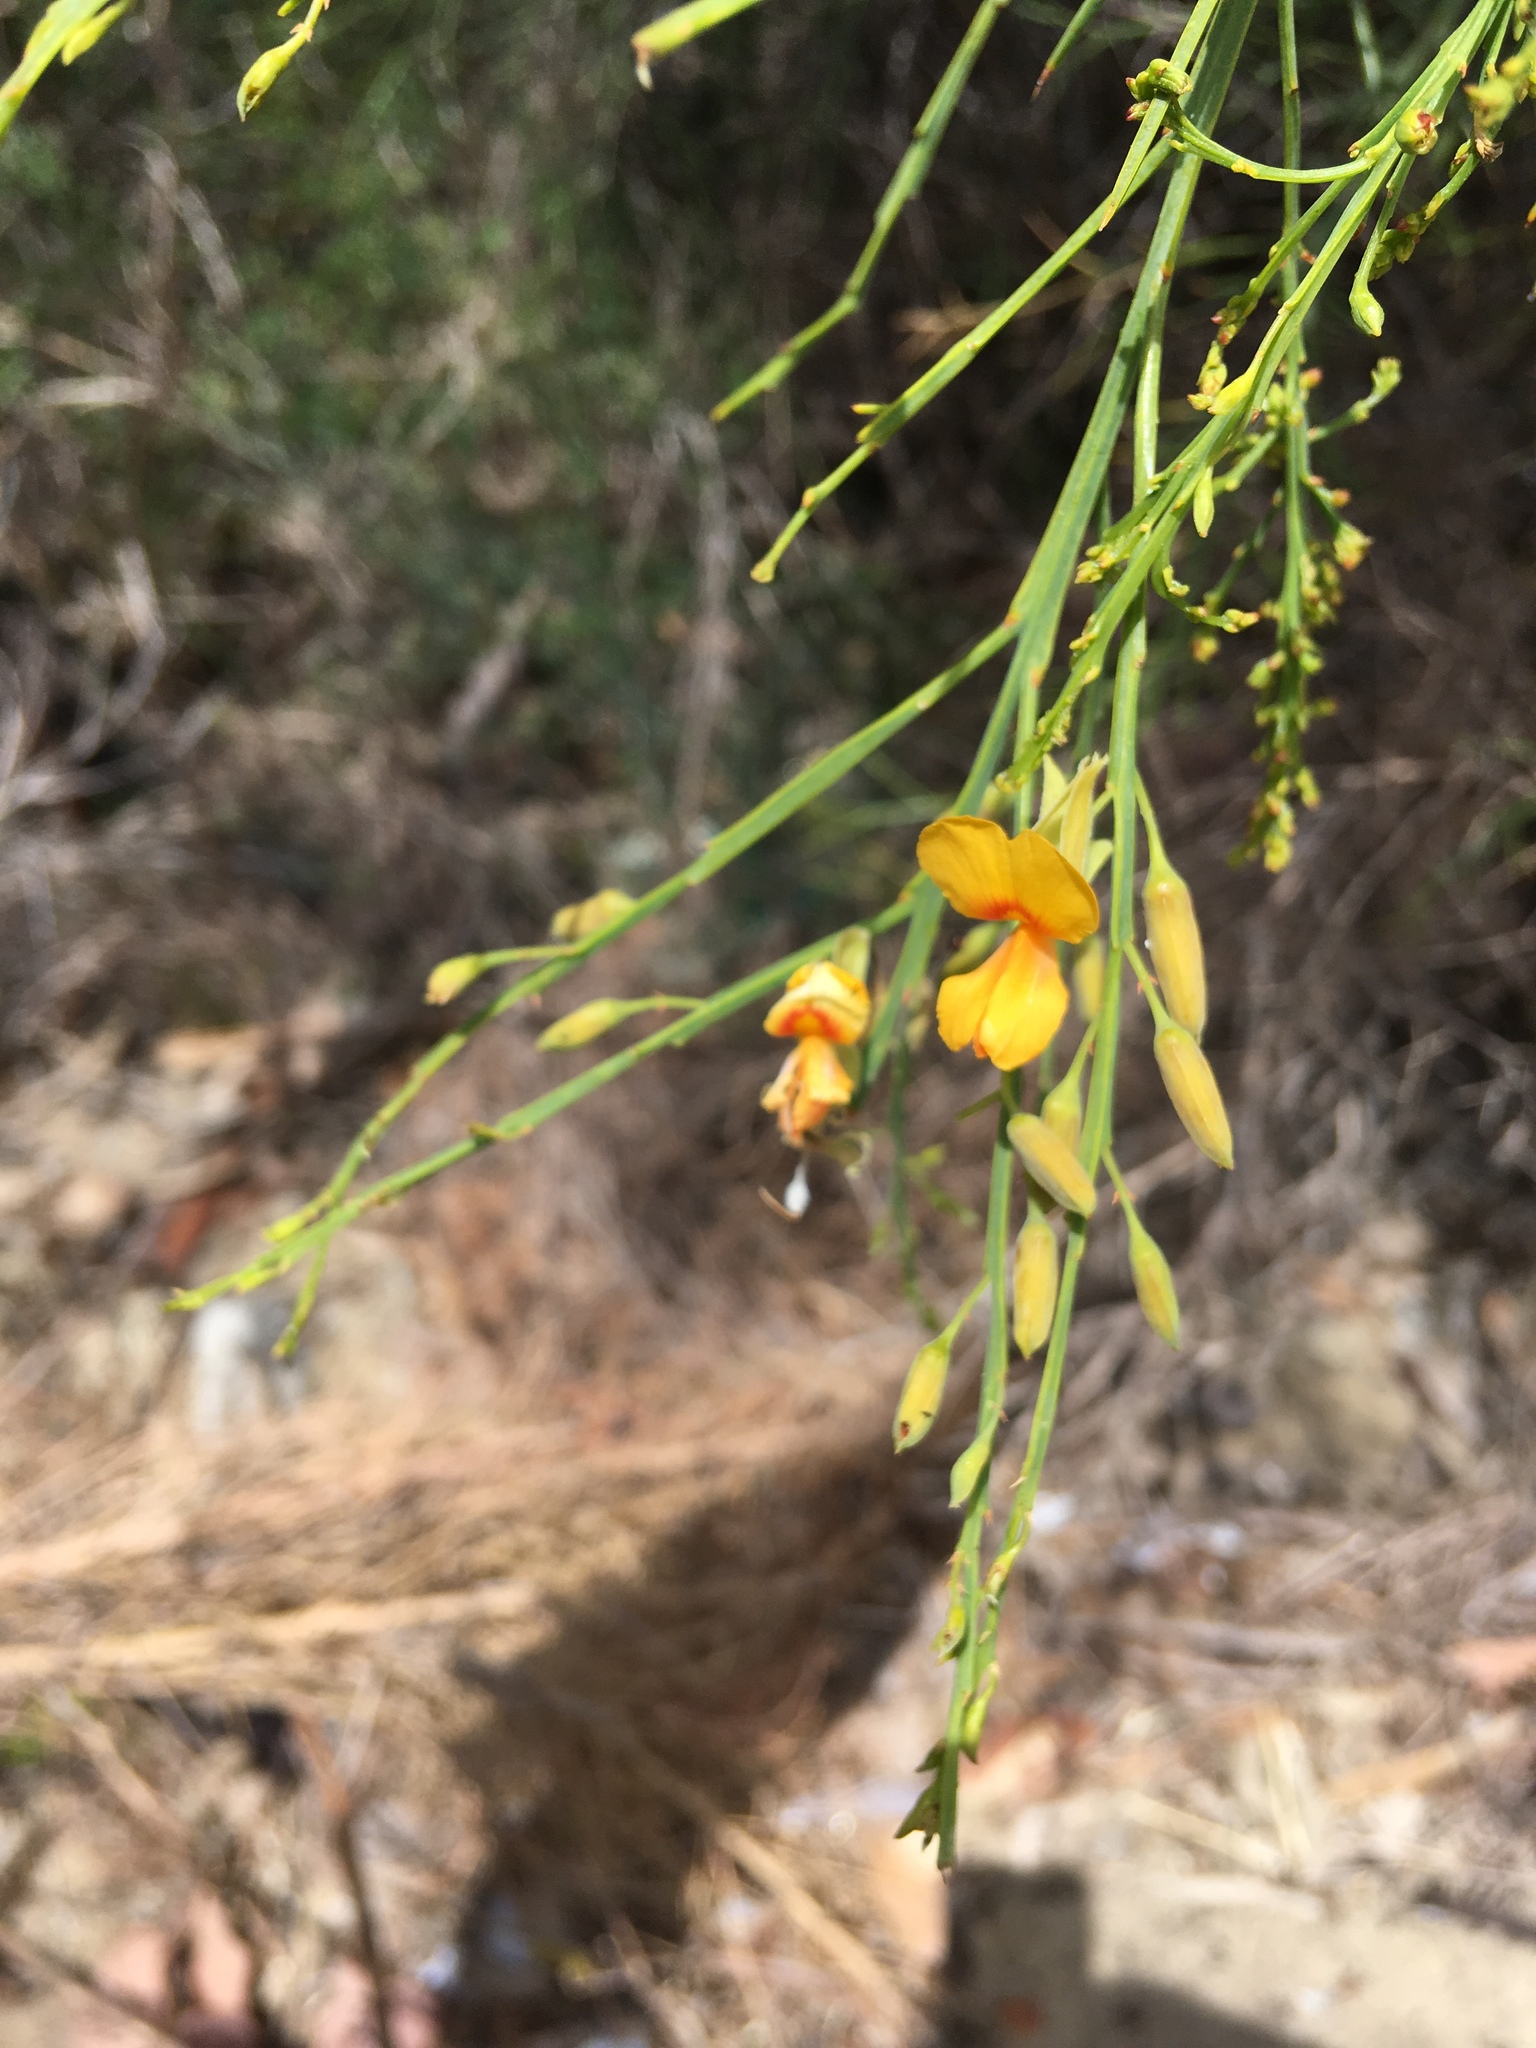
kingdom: Plantae
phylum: Tracheophyta
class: Magnoliopsida
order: Fabales
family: Fabaceae
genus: Jacksonia
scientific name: Jacksonia sternbergiana
